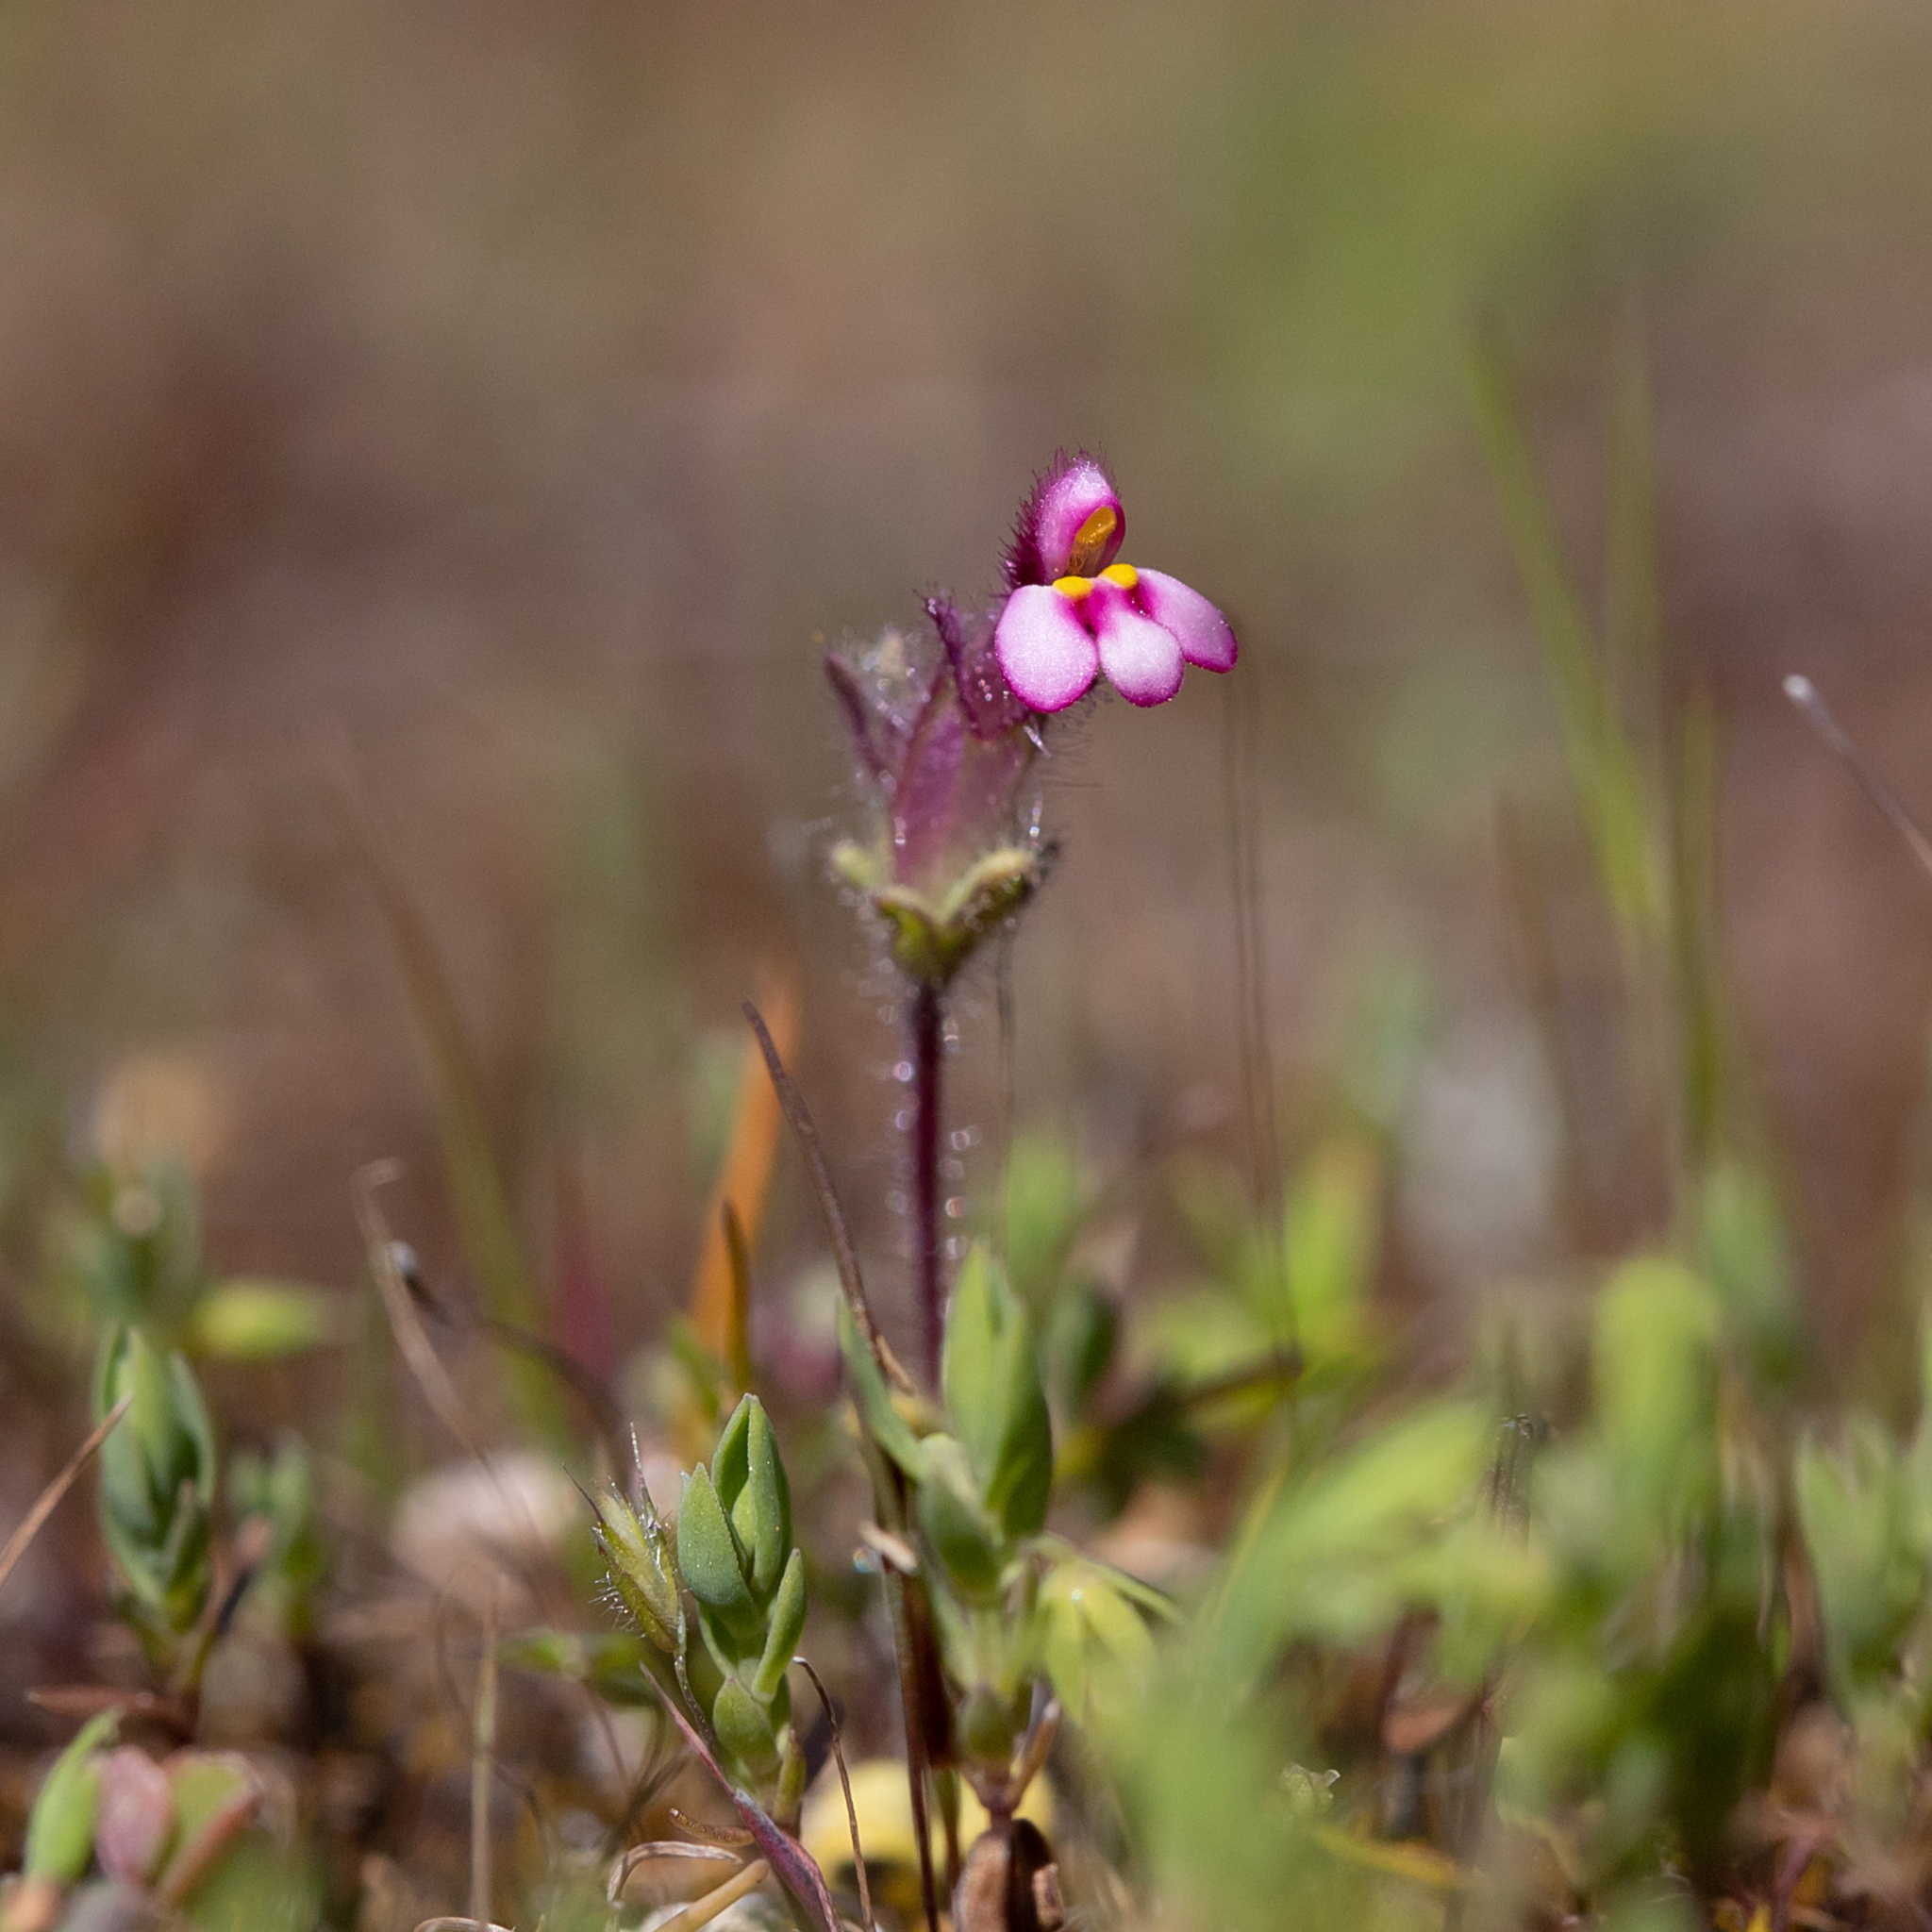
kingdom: Plantae
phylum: Tracheophyta
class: Magnoliopsida
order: Lamiales
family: Orobanchaceae
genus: Parentucellia
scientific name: Parentucellia latifolia
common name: Broadleaf glandweed
